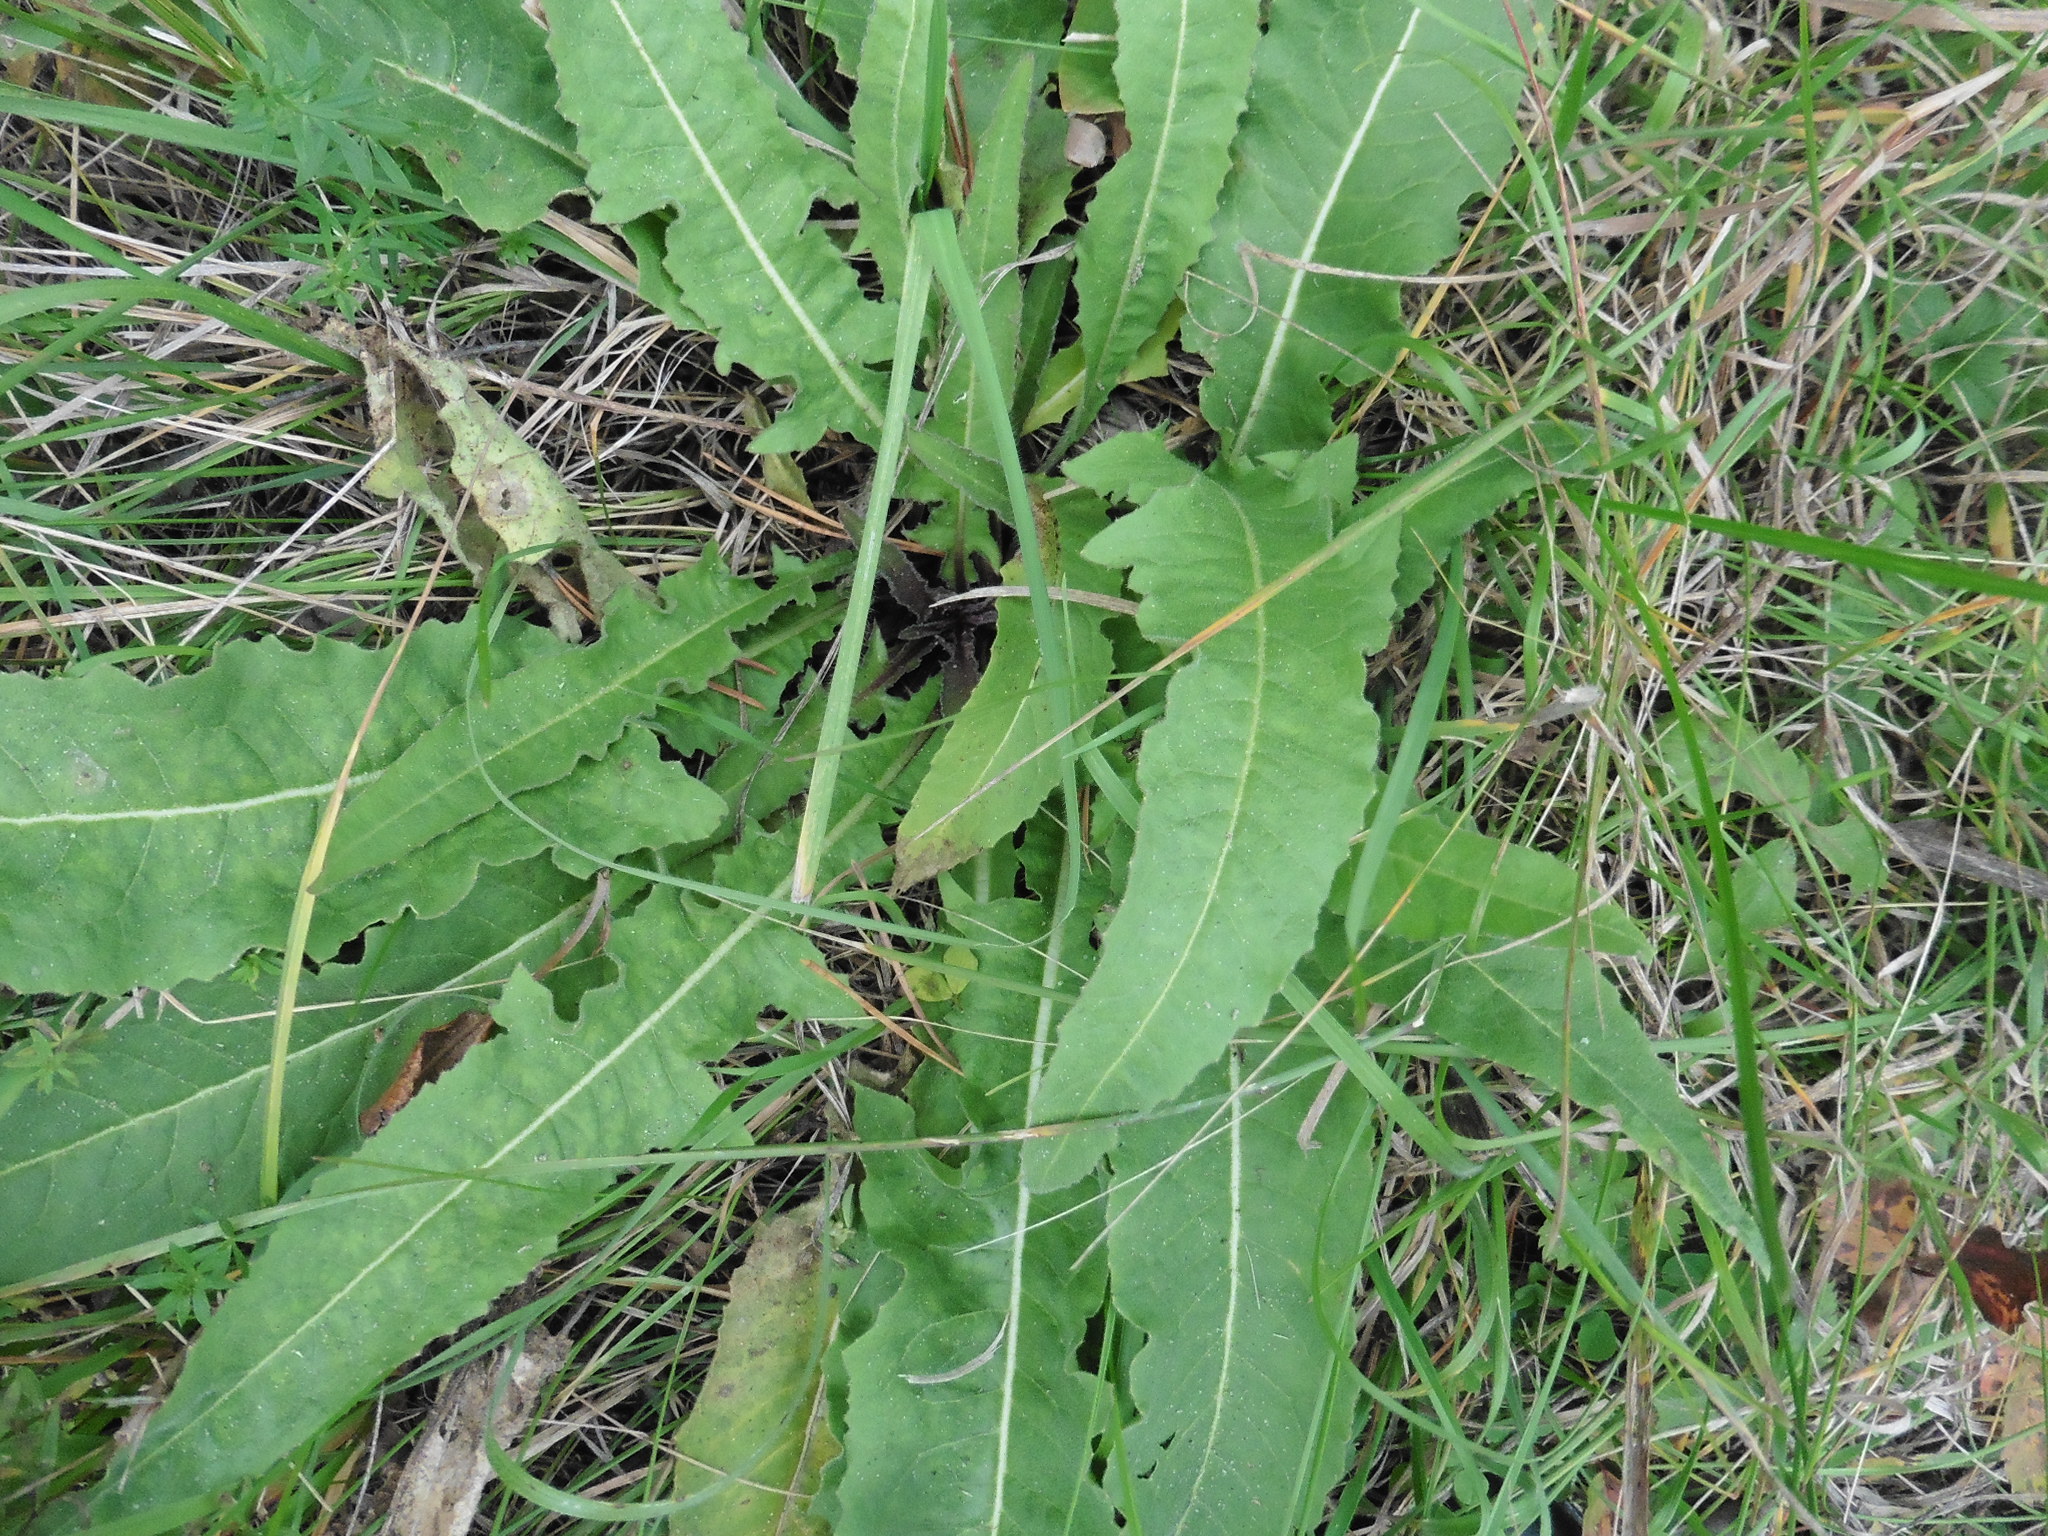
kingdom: Plantae
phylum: Tracheophyta
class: Magnoliopsida
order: Brassicales
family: Brassicaceae
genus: Bunias
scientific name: Bunias orientalis
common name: Warty-cabbage
